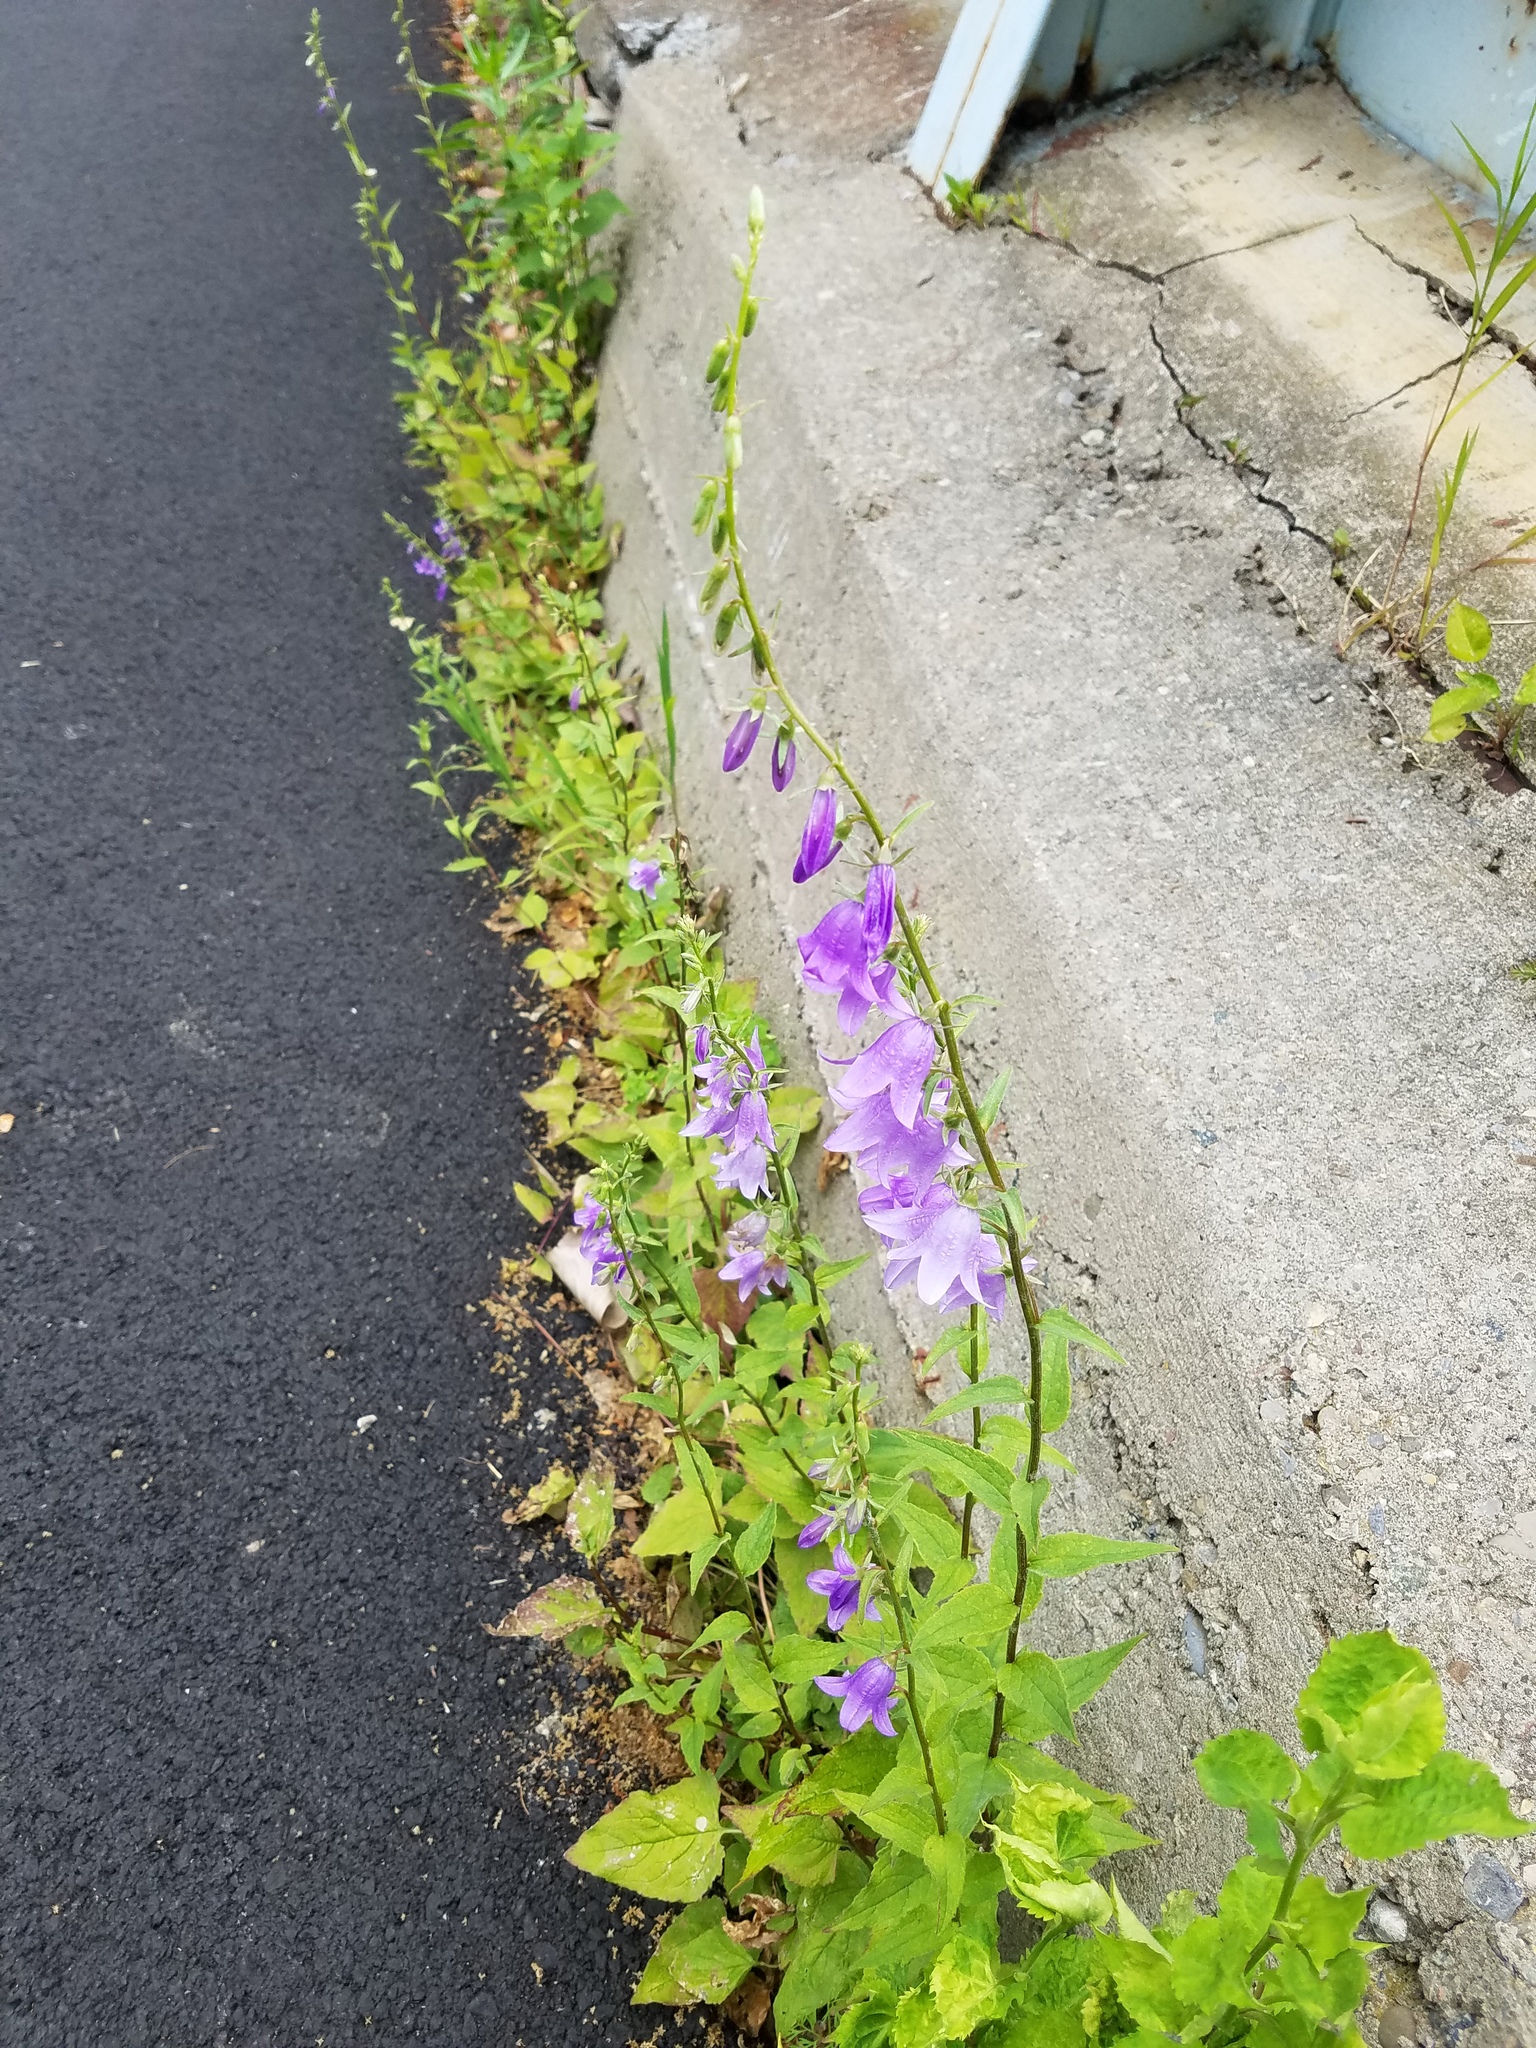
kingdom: Plantae
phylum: Tracheophyta
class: Magnoliopsida
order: Asterales
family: Campanulaceae
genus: Campanula
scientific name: Campanula rapunculoides
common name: Creeping bellflower
